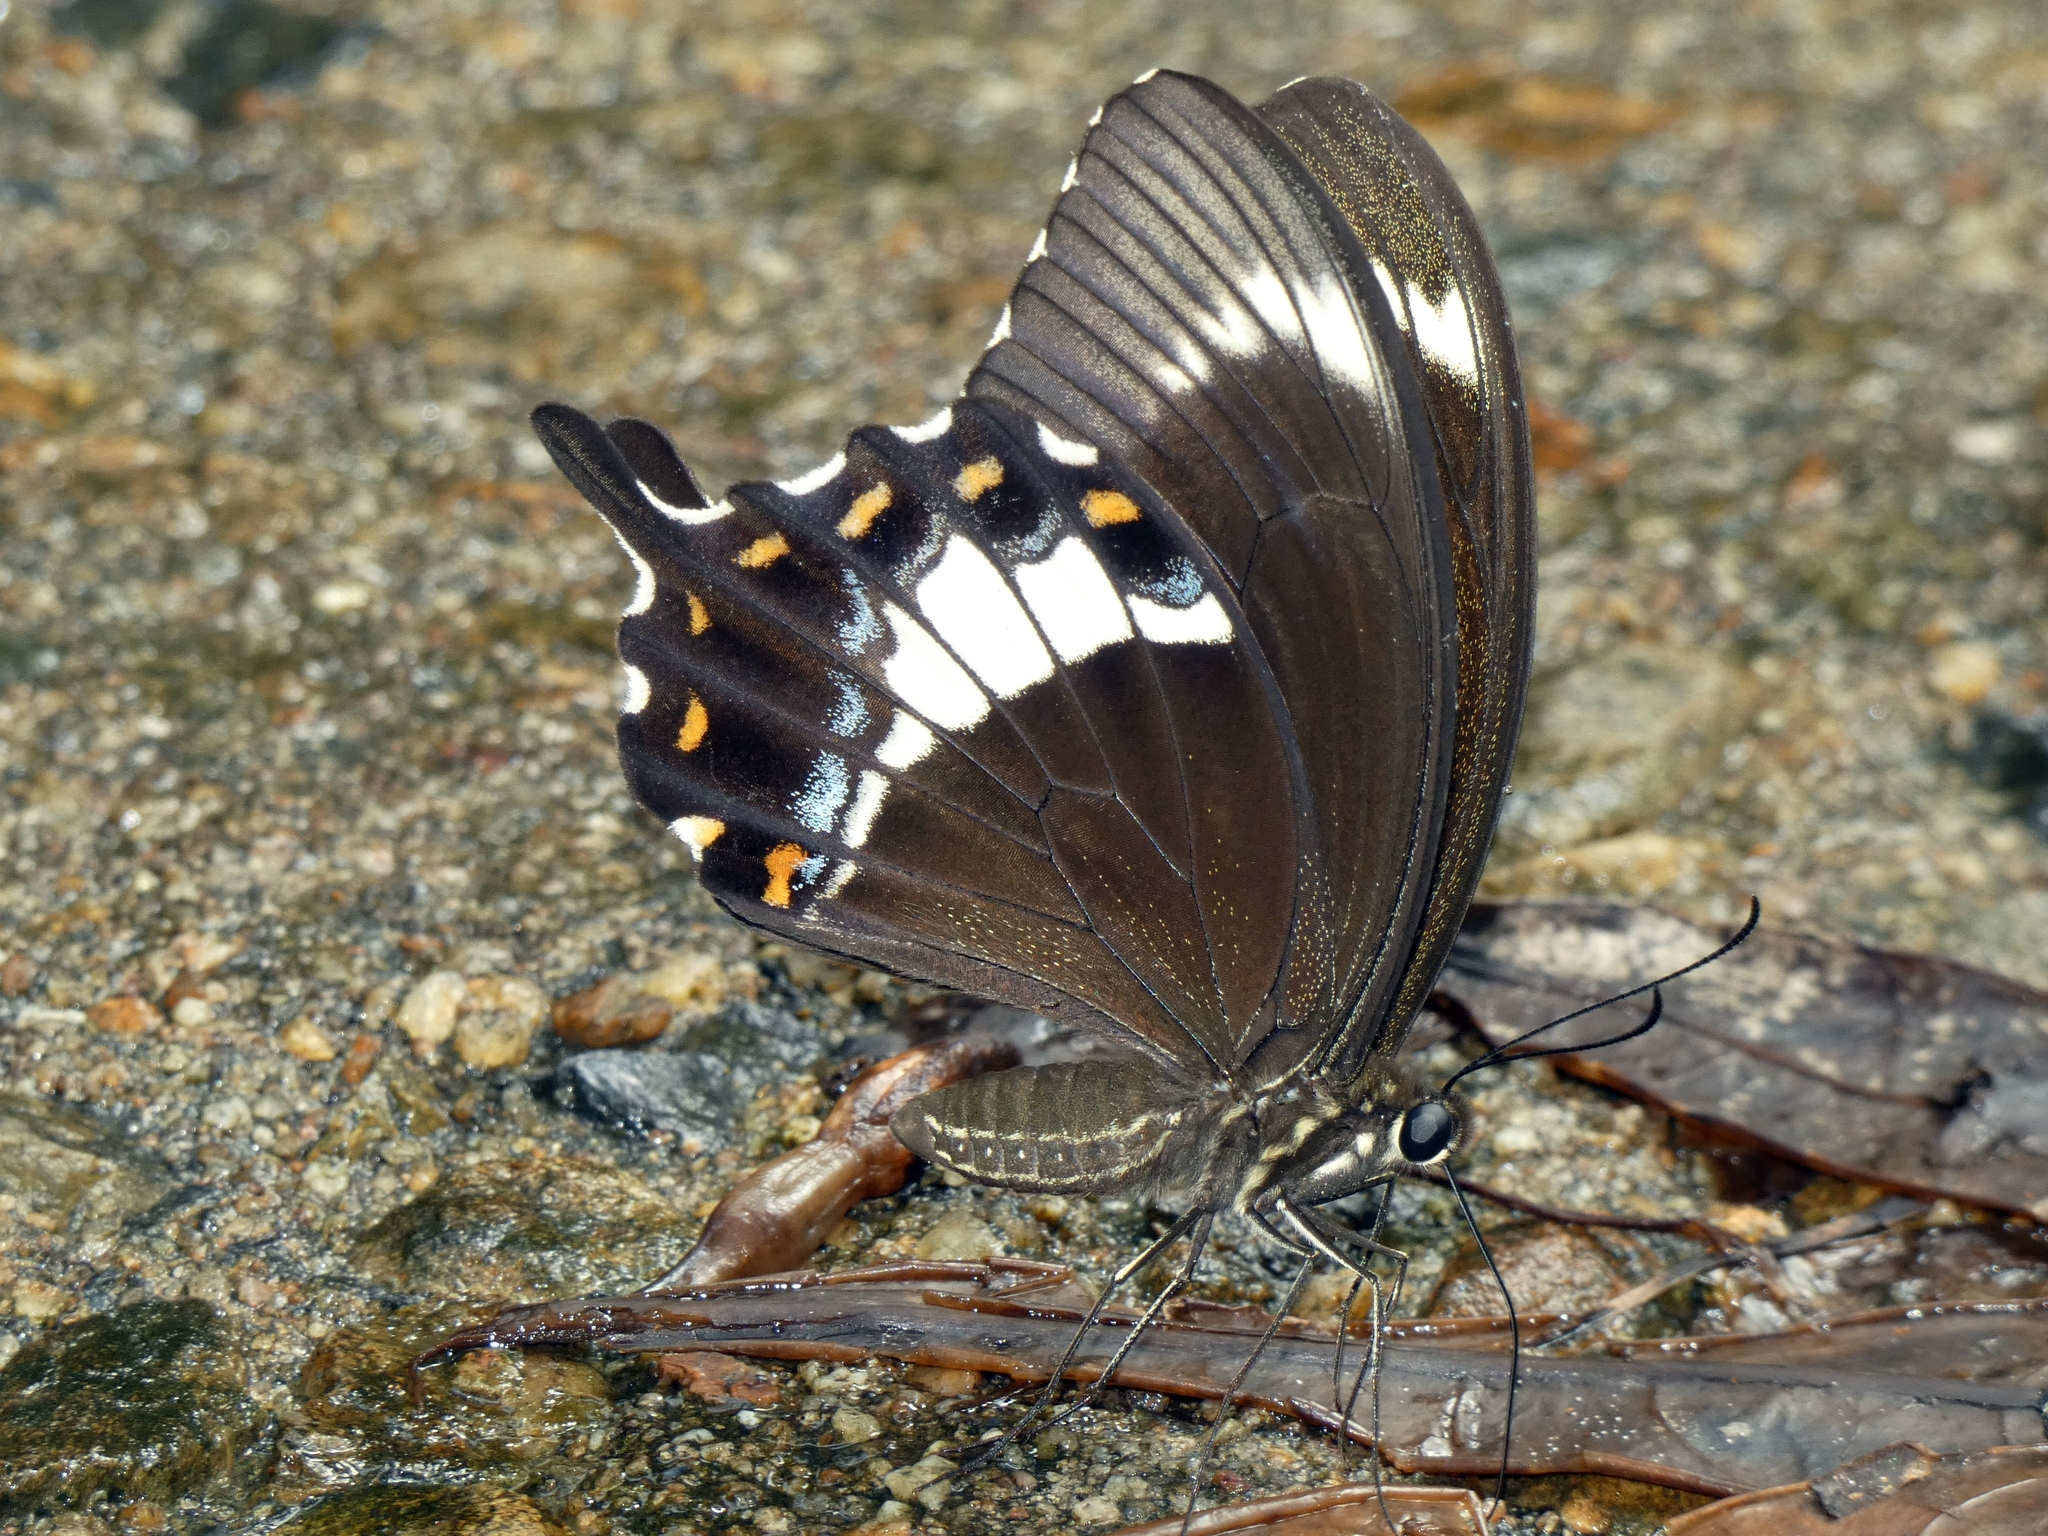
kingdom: Animalia
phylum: Arthropoda
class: Insecta
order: Lepidoptera
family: Lycaenidae
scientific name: Lycaenidae
